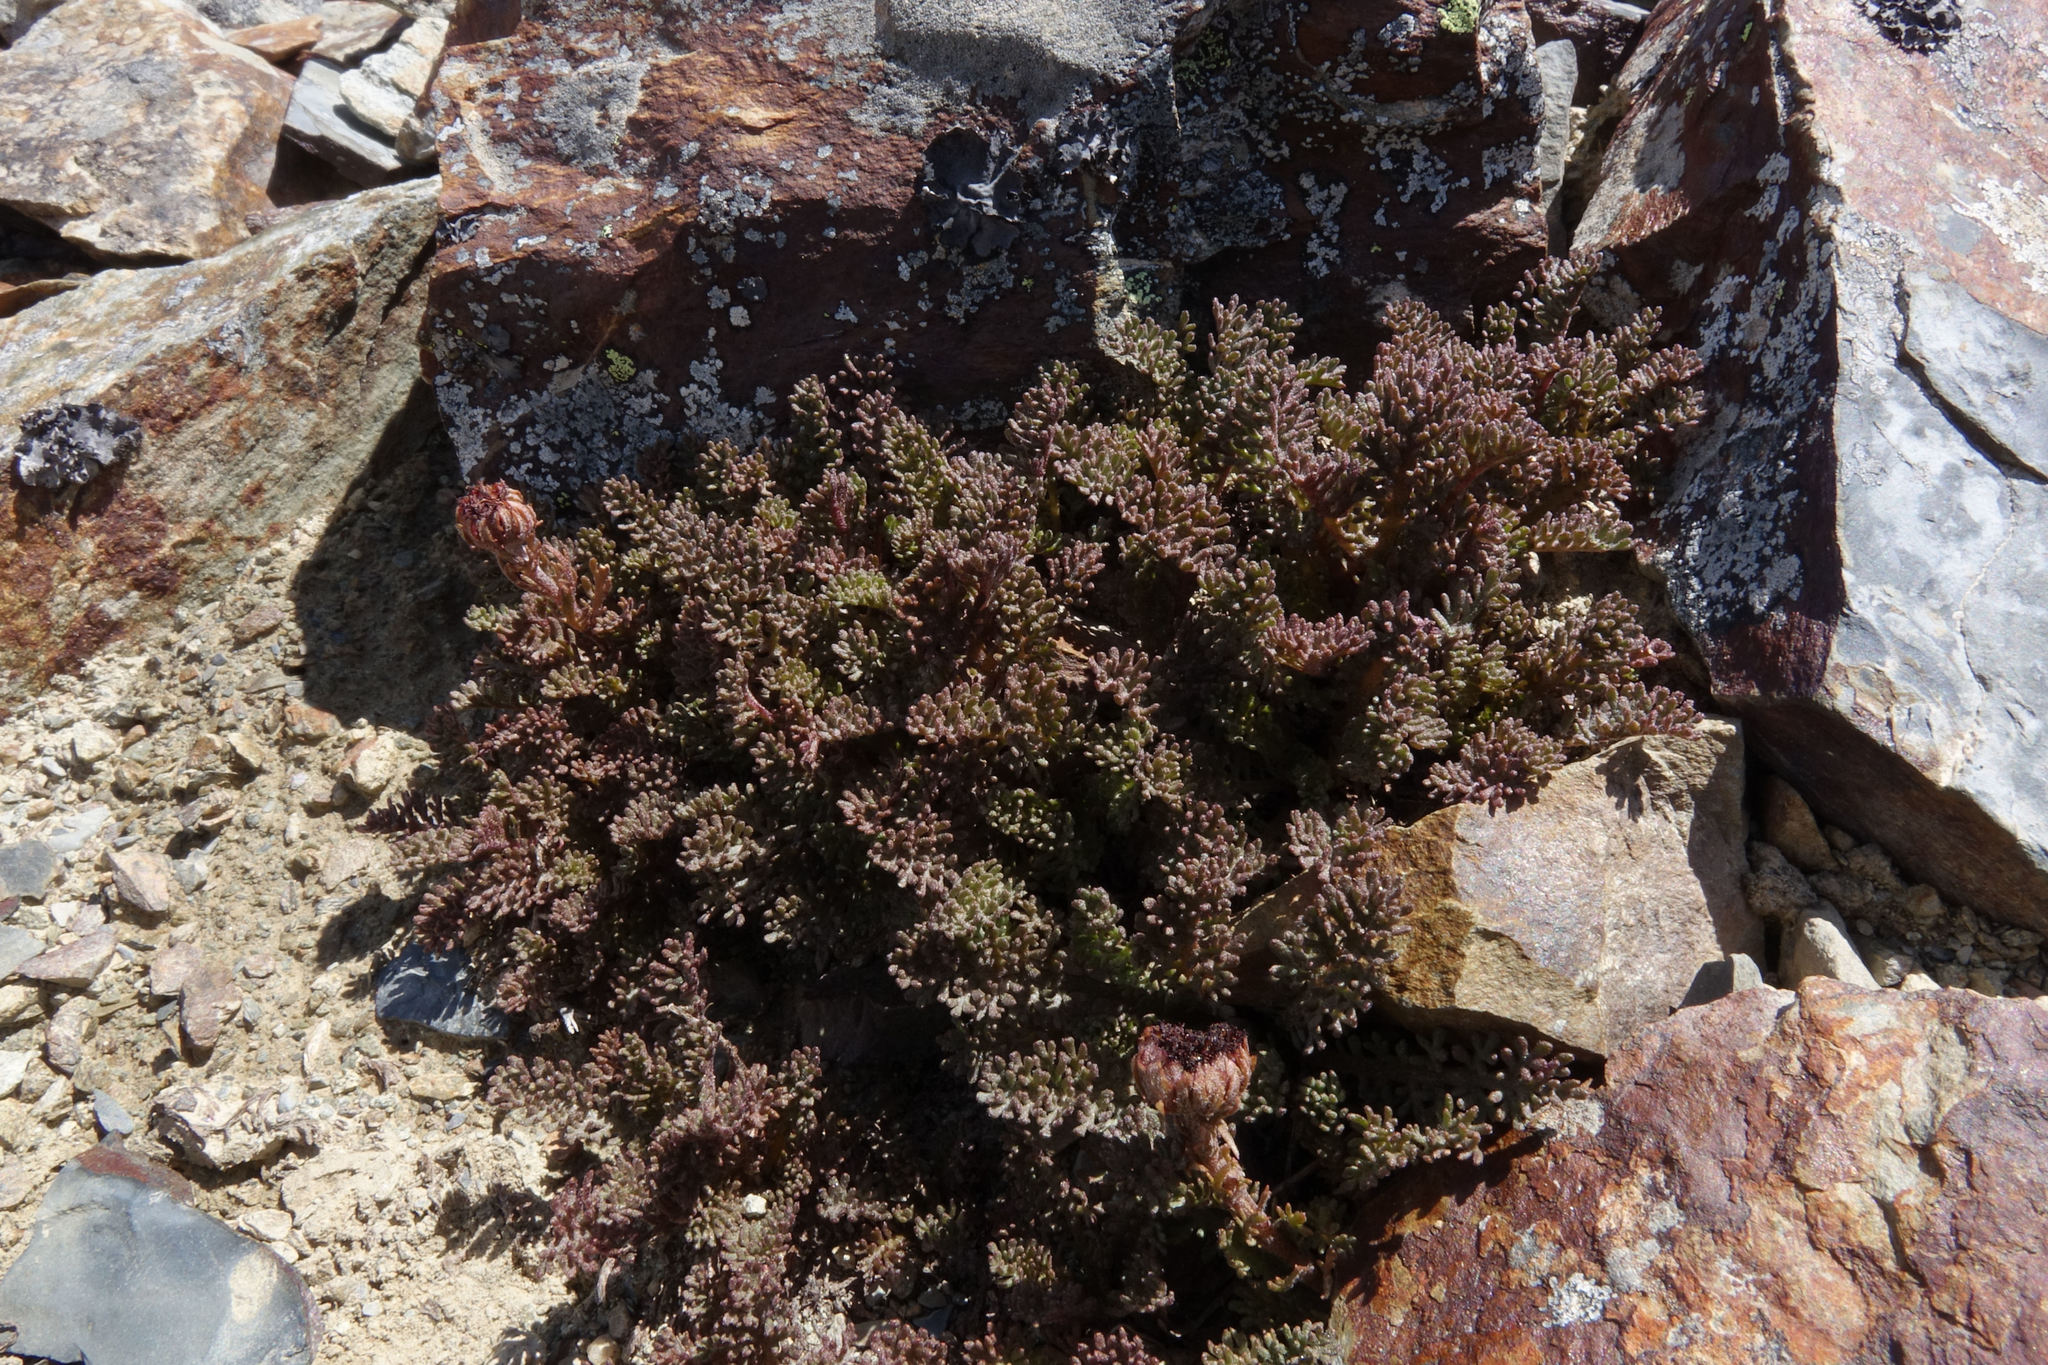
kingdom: Plantae
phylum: Tracheophyta
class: Magnoliopsida
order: Asterales
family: Asteraceae
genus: Leptinella
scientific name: Leptinella atrata
